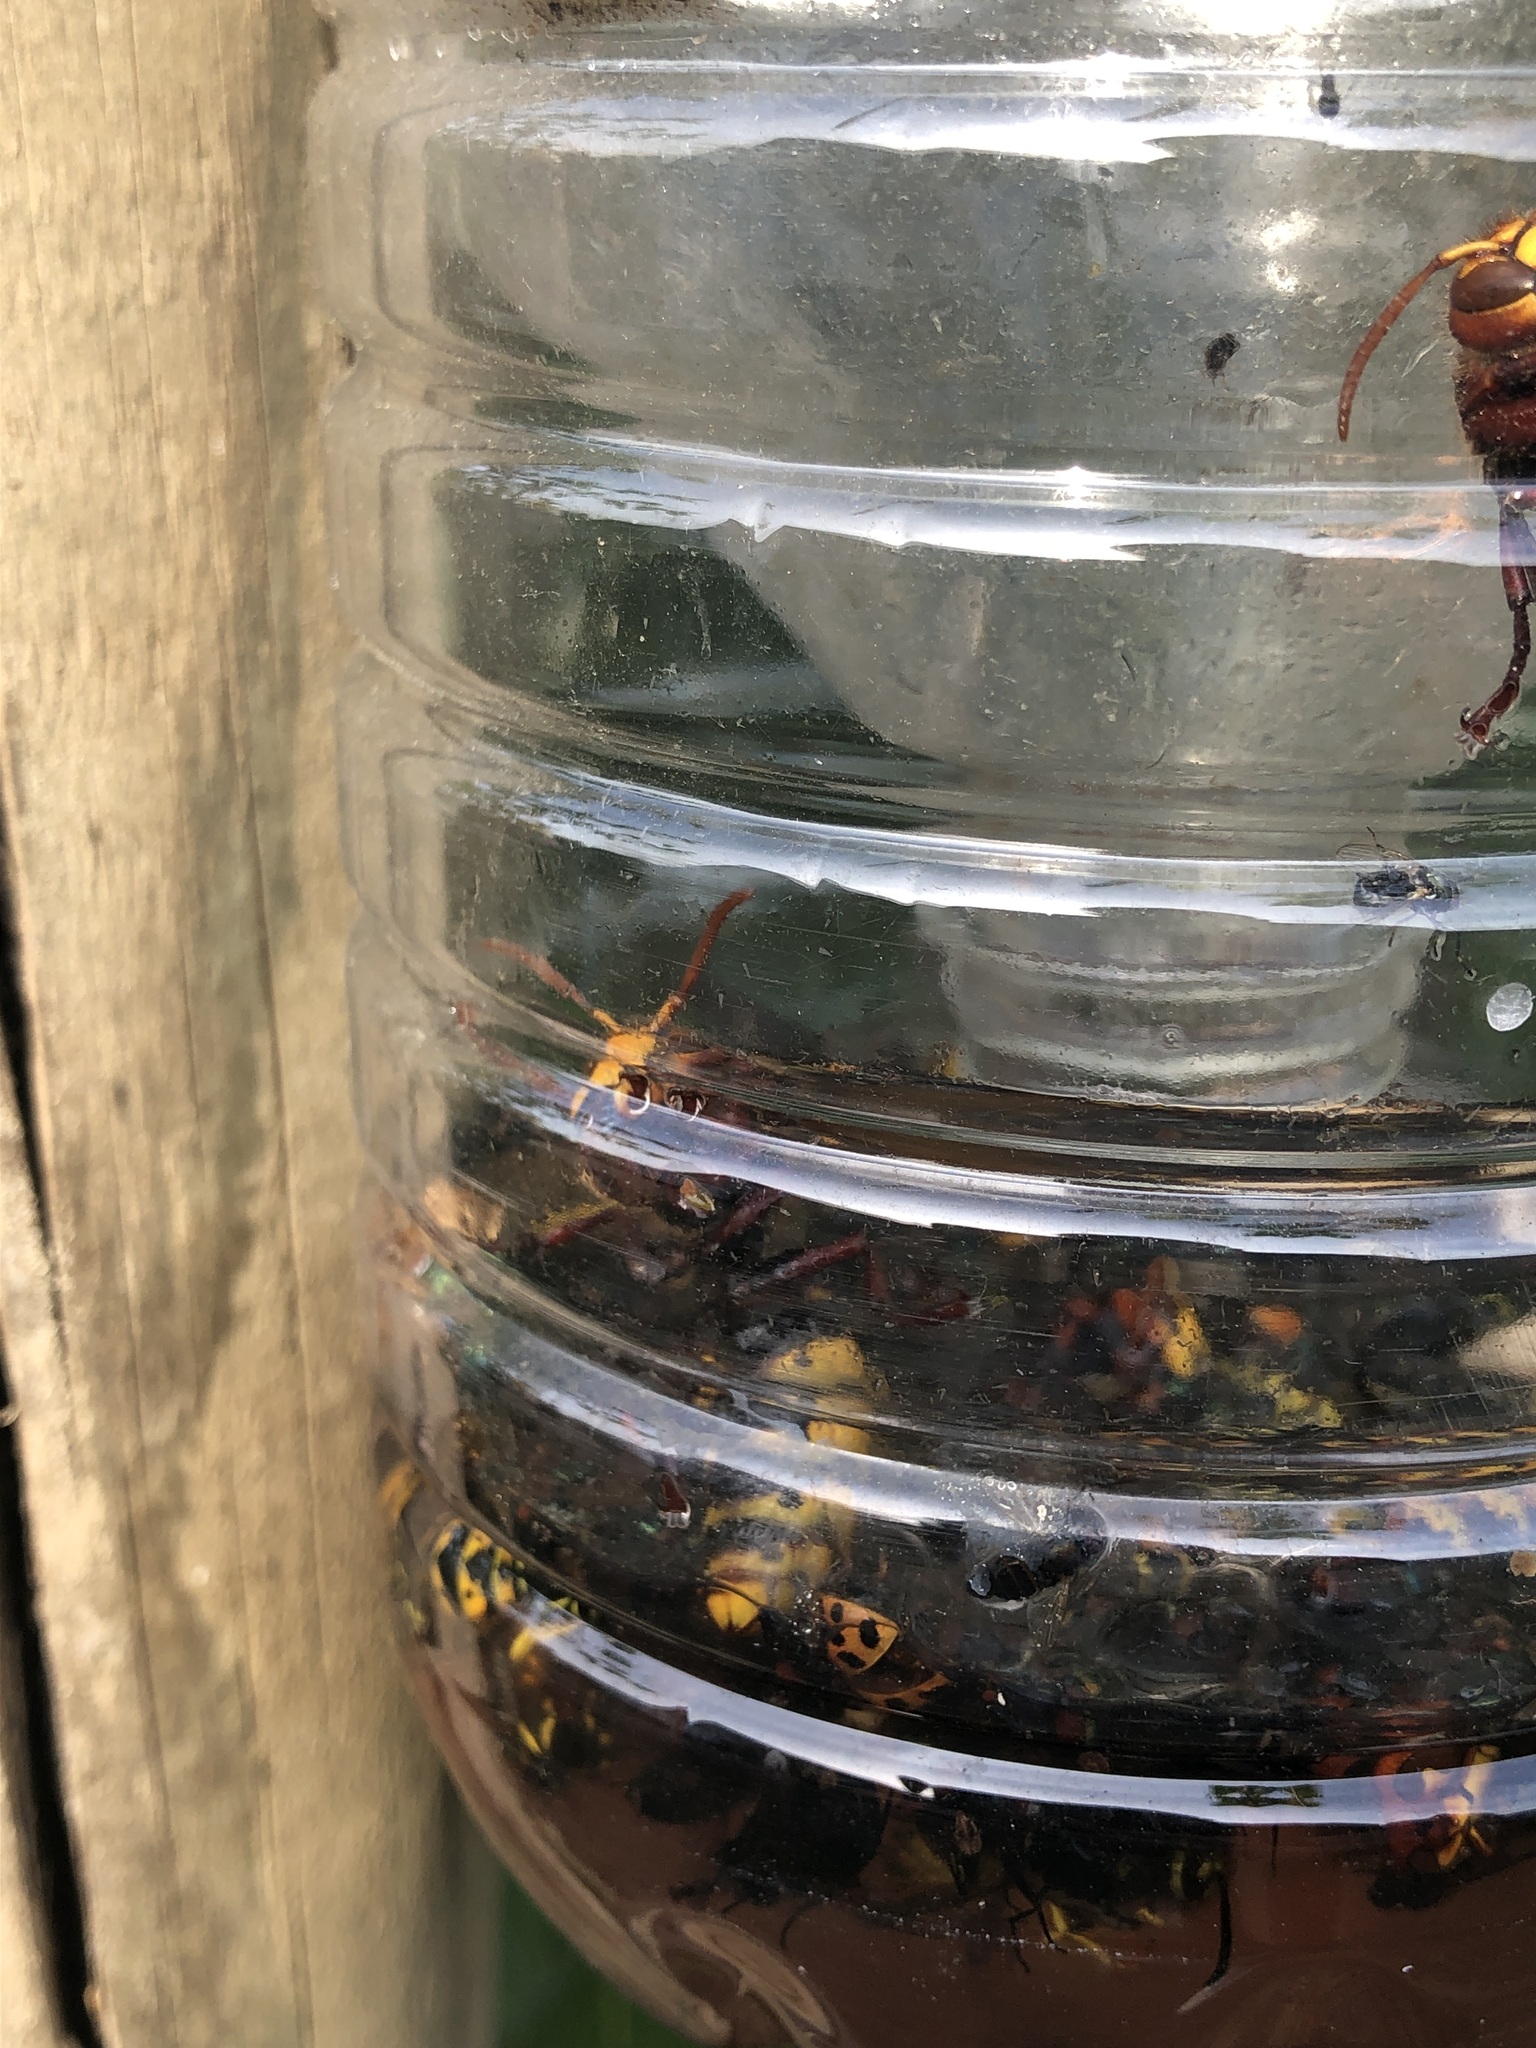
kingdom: Animalia
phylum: Arthropoda
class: Insecta
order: Hymenoptera
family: Vespidae
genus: Vespa
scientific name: Vespa crabro
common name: Hornet
